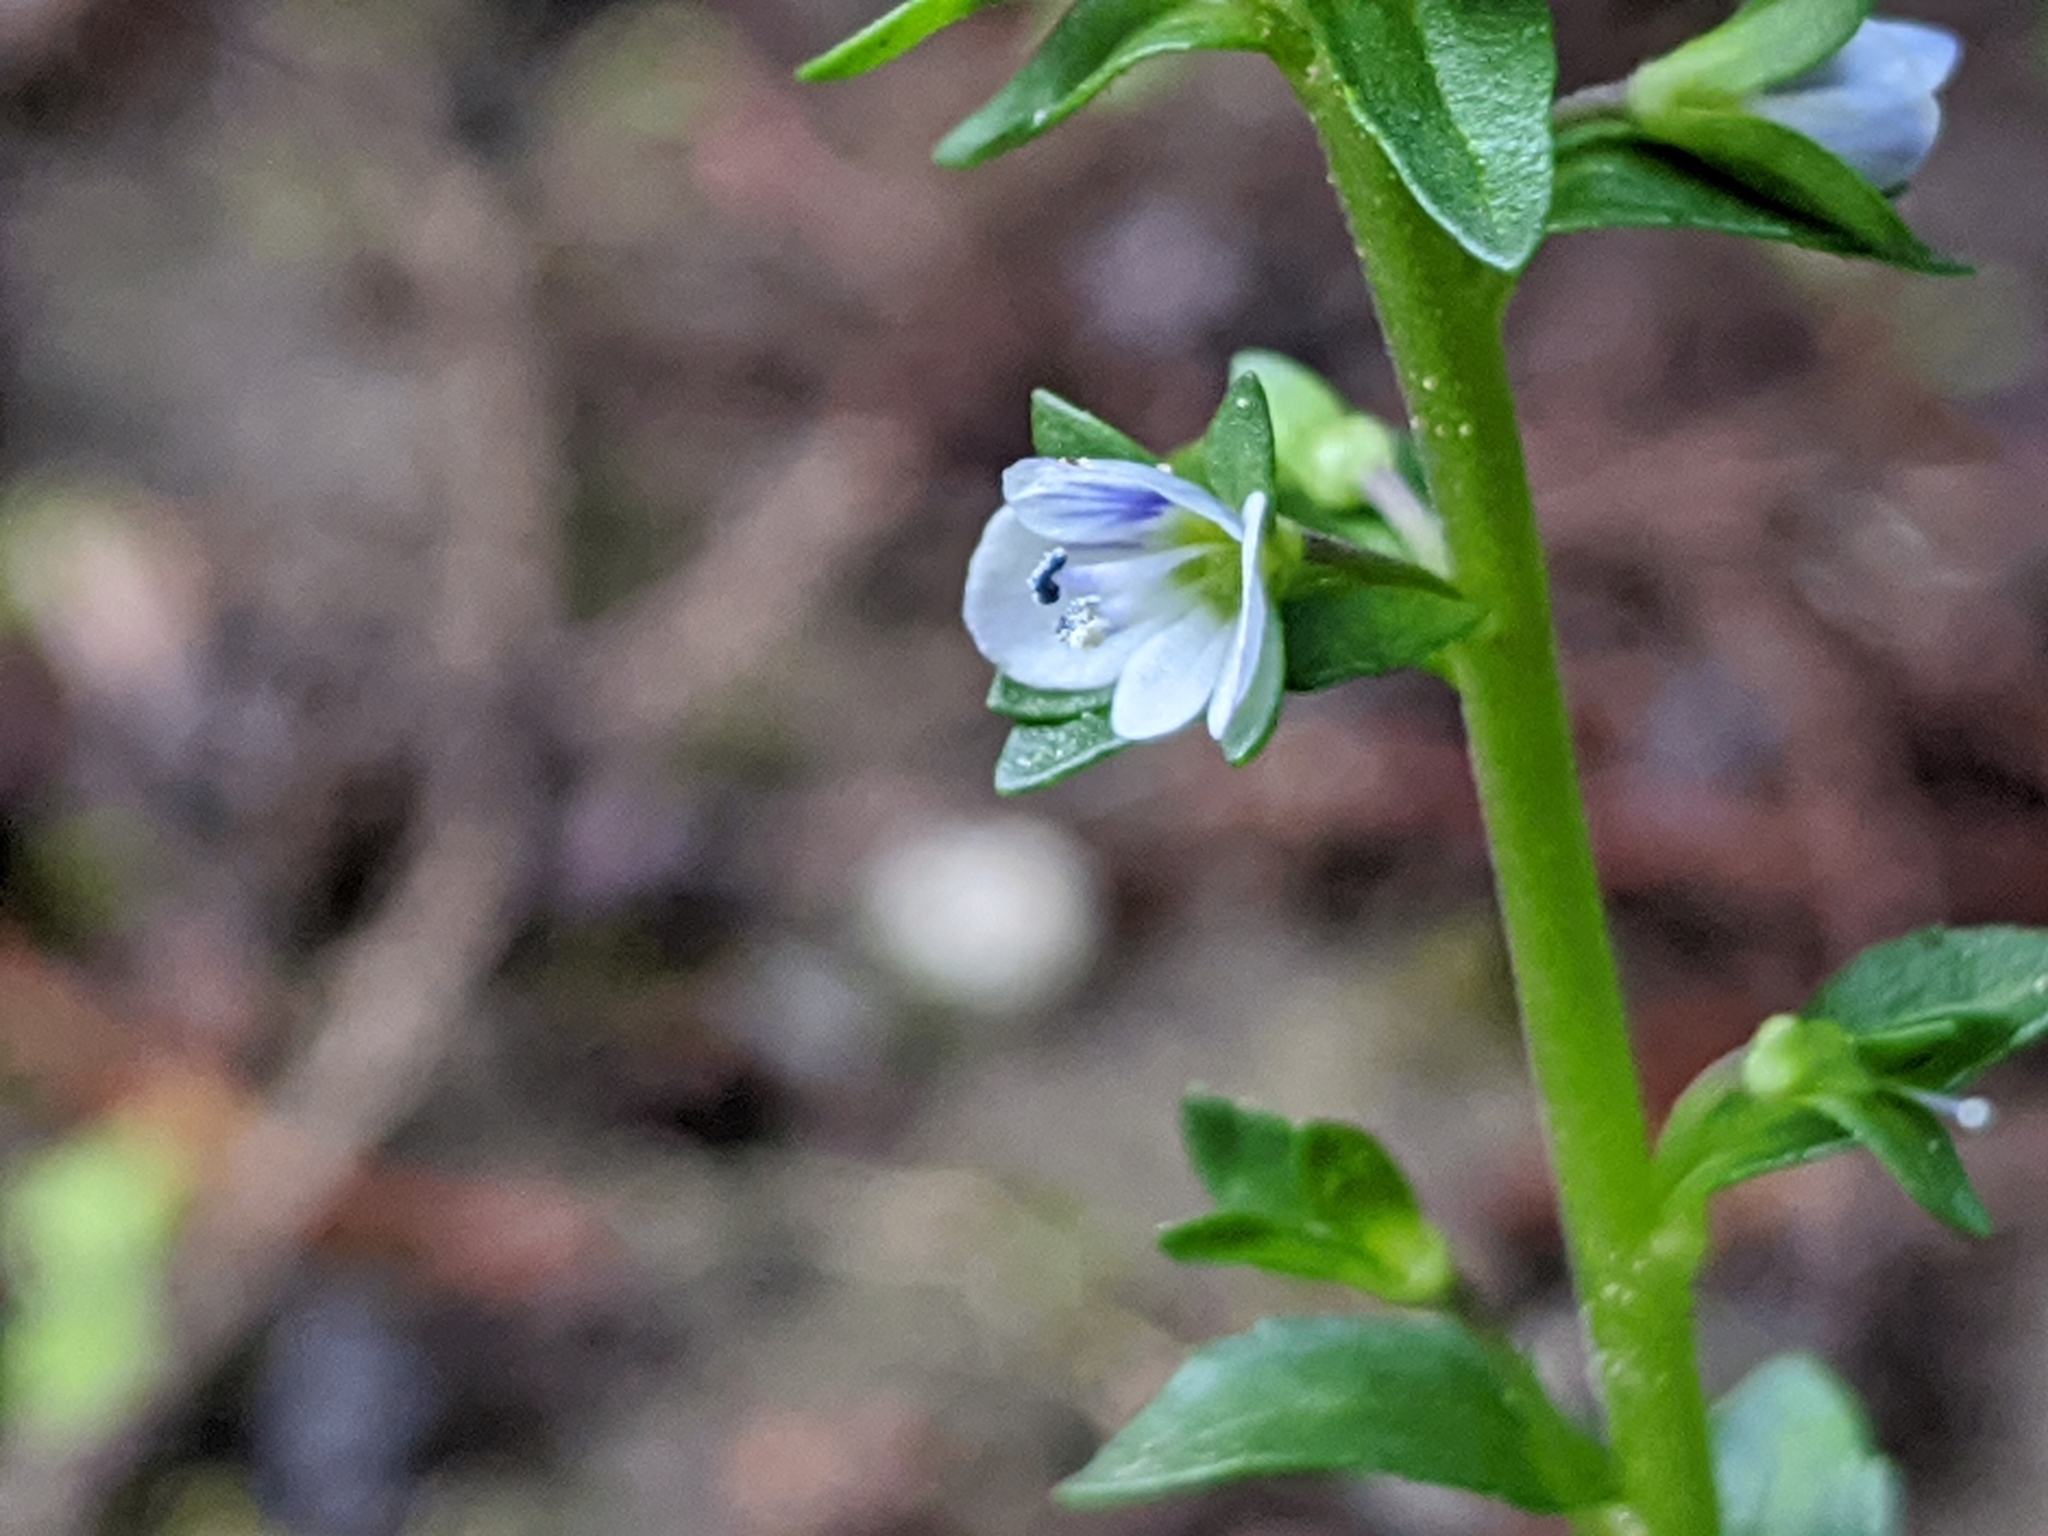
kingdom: Plantae
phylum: Tracheophyta
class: Magnoliopsida
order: Lamiales
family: Plantaginaceae
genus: Veronica
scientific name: Veronica serpyllifolia
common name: Thyme-leaved speedwell
